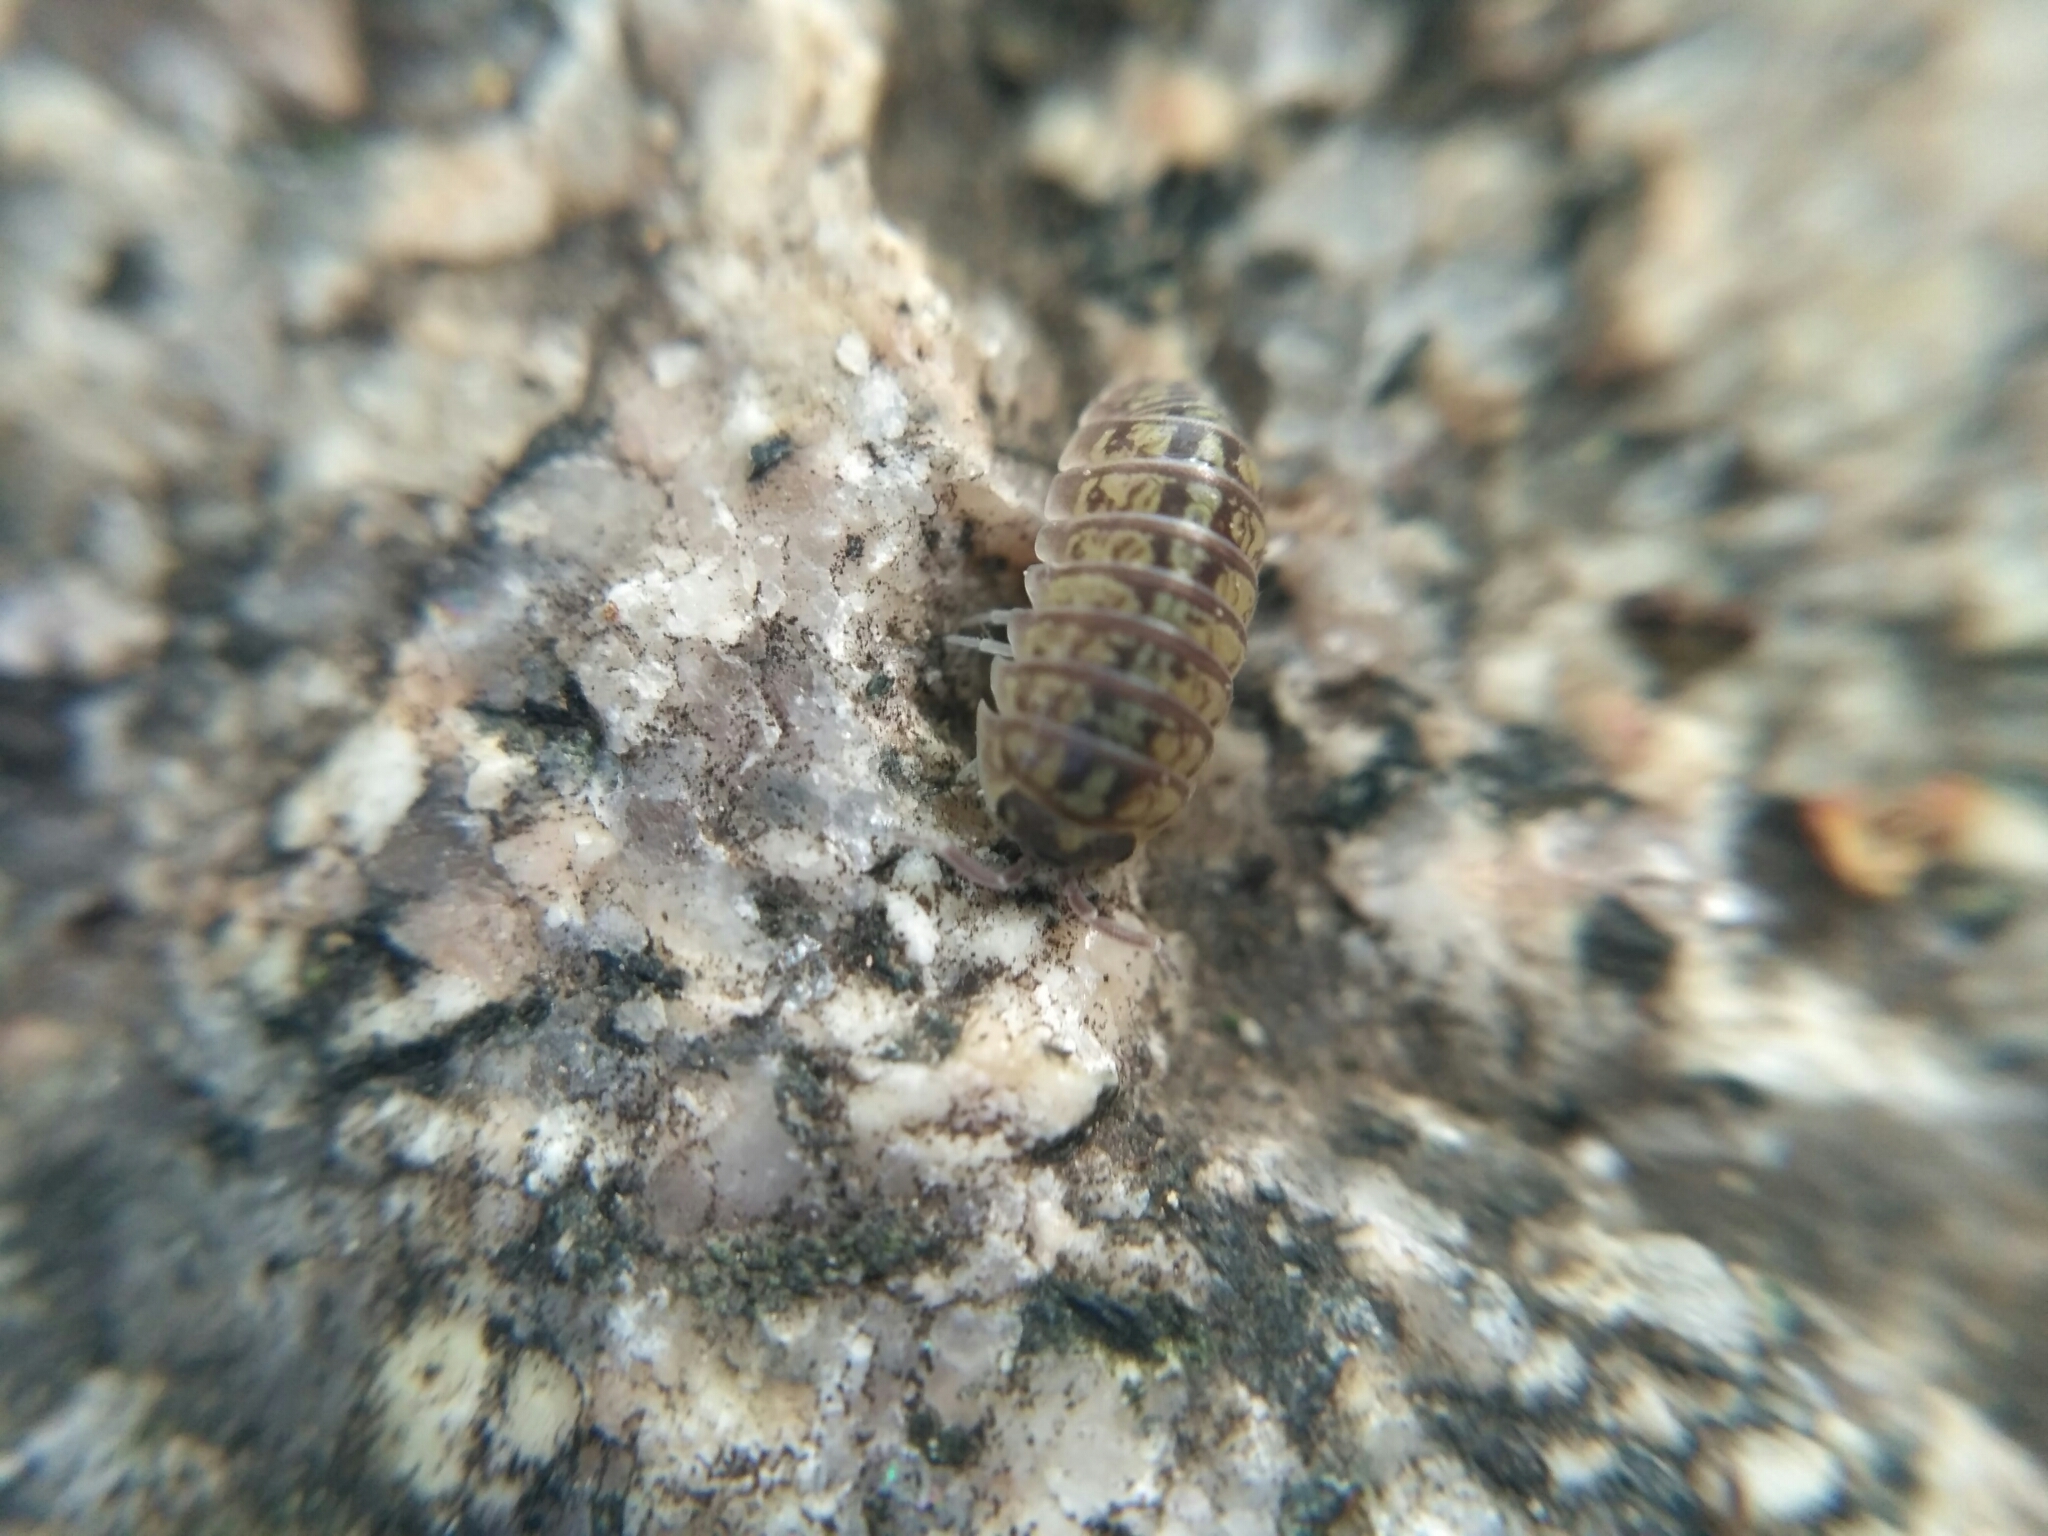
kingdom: Animalia
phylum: Arthropoda
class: Malacostraca
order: Isopoda
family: Armadillidiidae
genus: Armadillidium
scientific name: Armadillidium versicolor
